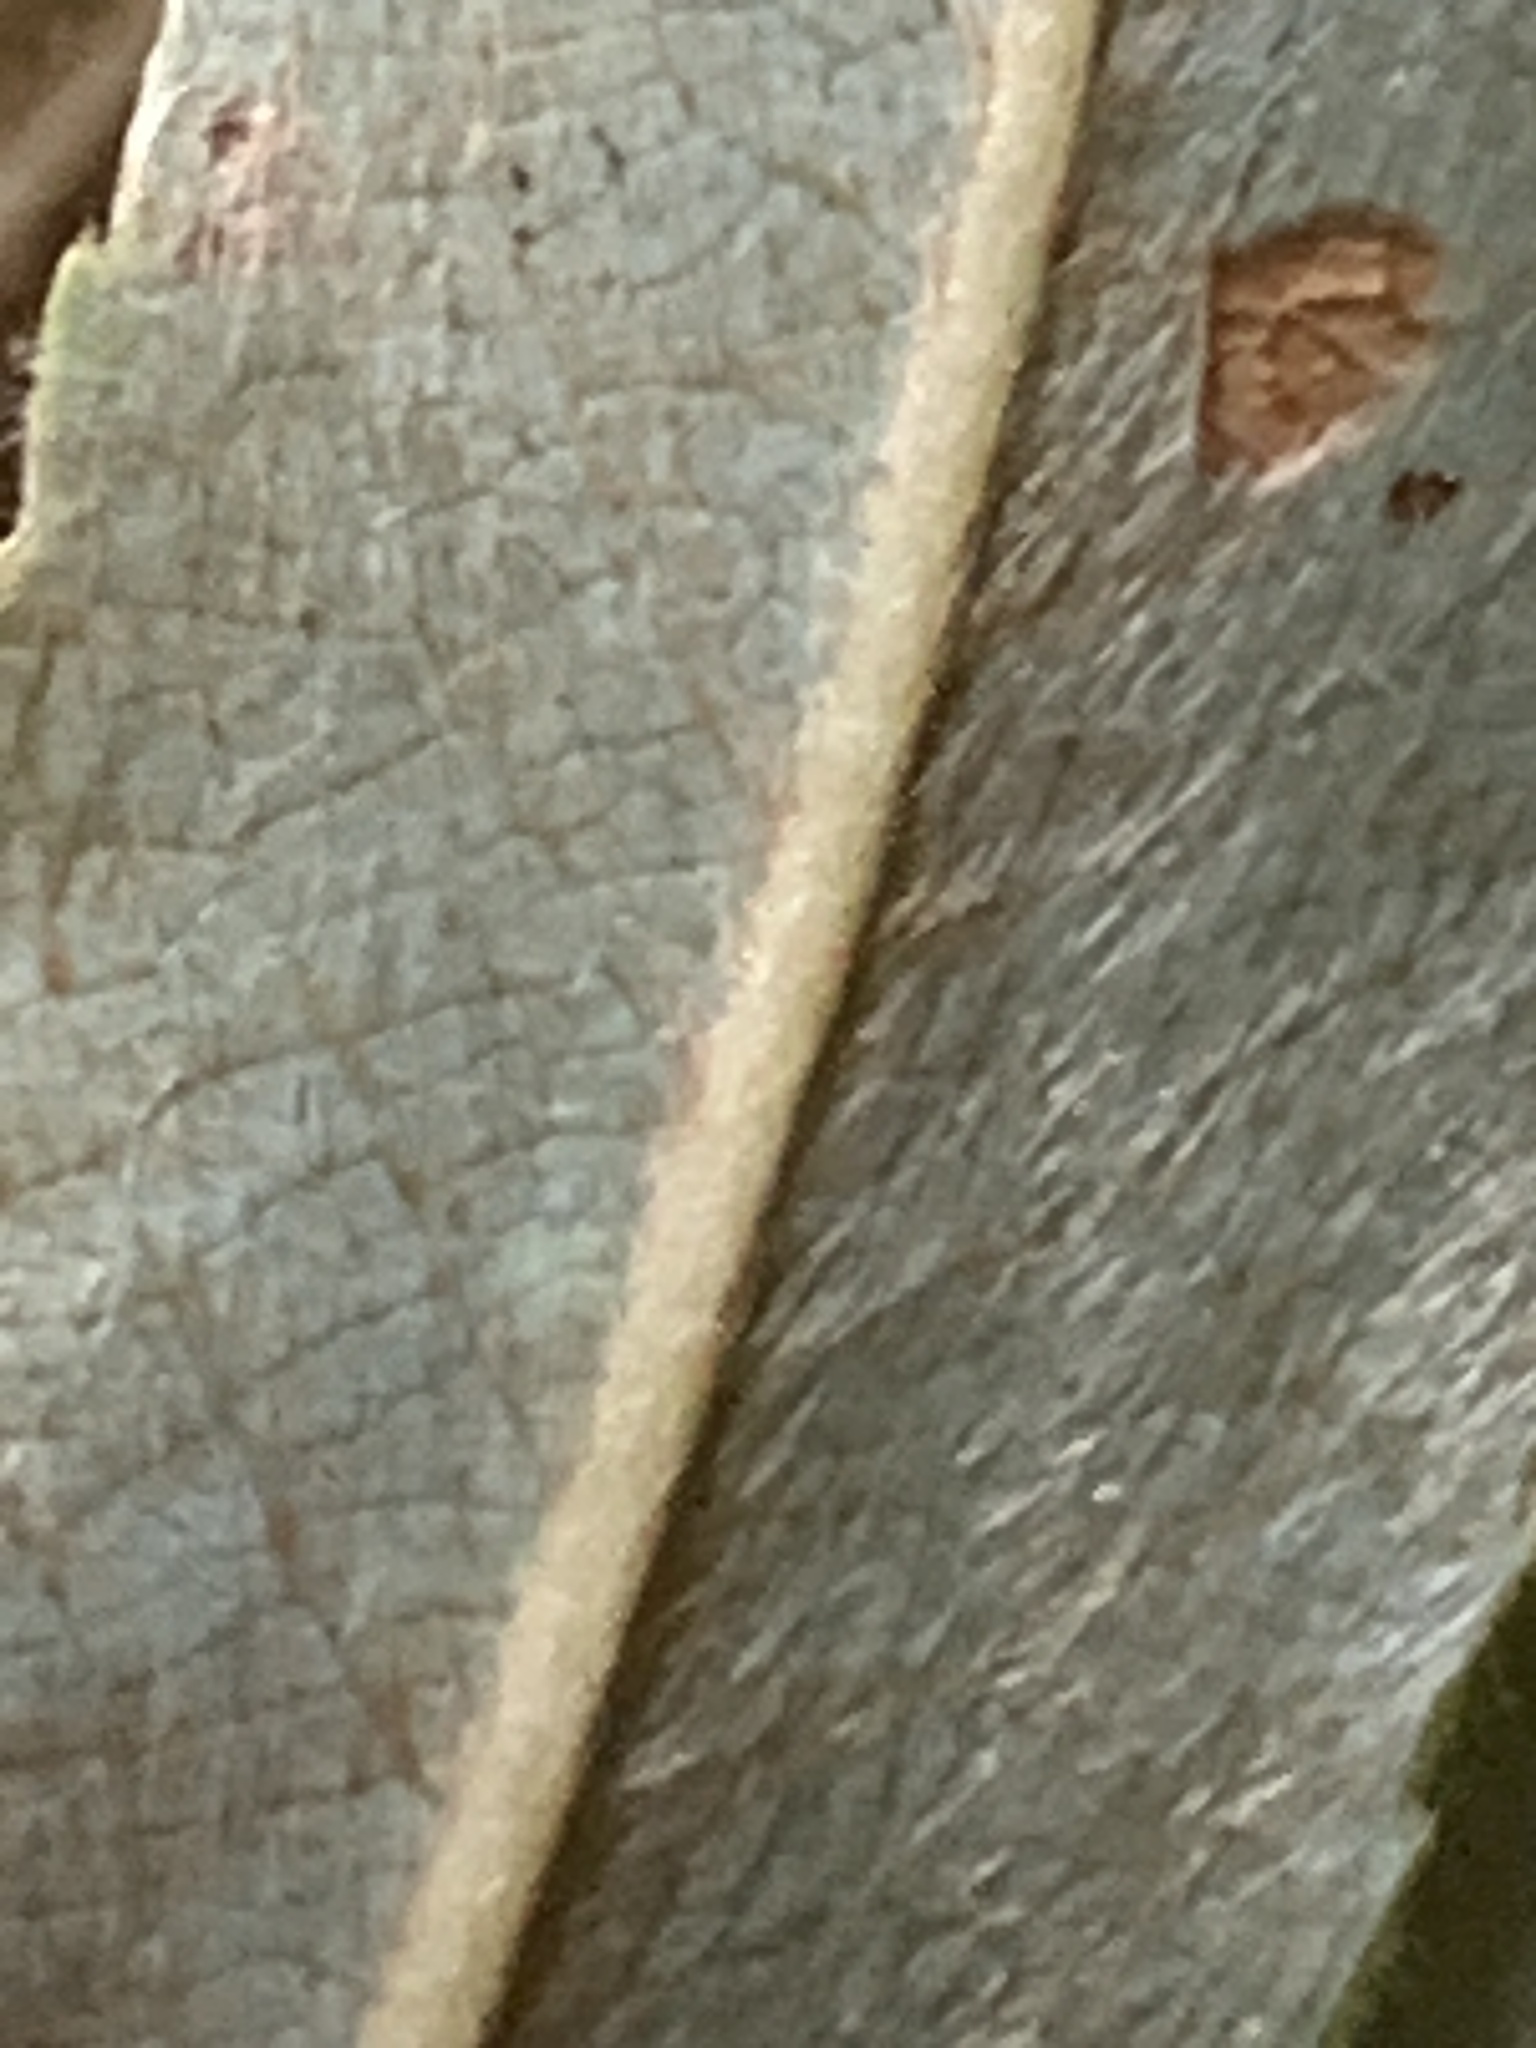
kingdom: Plantae
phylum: Tracheophyta
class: Magnoliopsida
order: Malpighiales
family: Salicaceae
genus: Salix
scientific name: Salix petiolaris
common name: Slender willow
